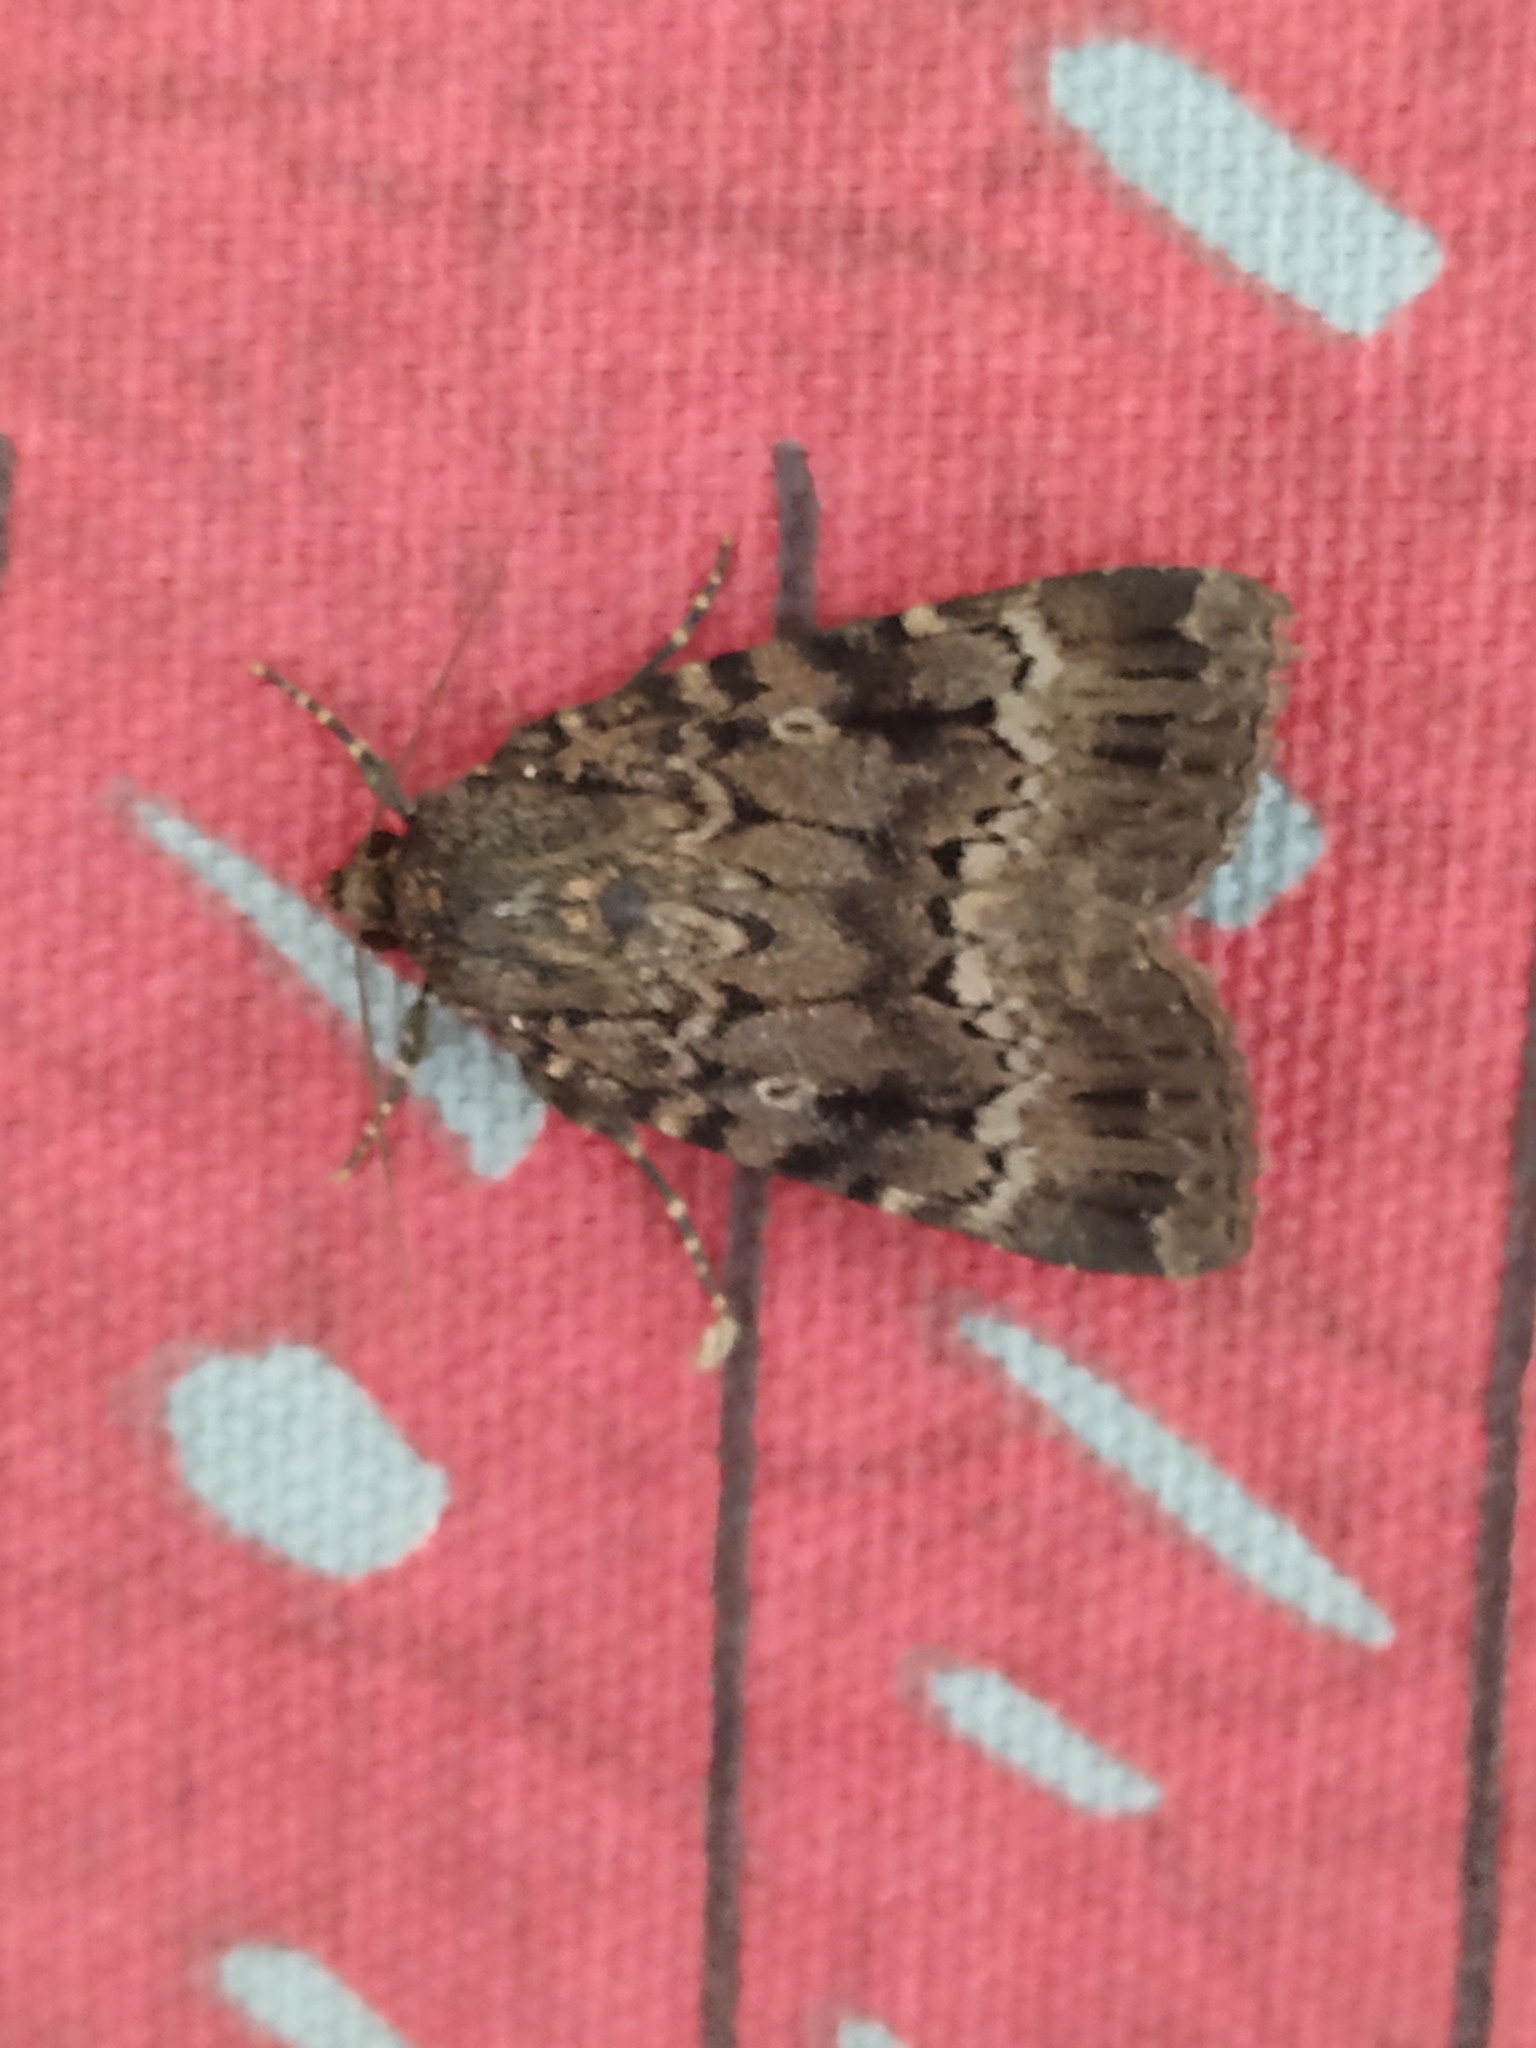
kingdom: Animalia
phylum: Arthropoda
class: Insecta
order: Lepidoptera
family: Noctuidae
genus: Amphipyra
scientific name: Amphipyra pyramidea
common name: Copper underwing
